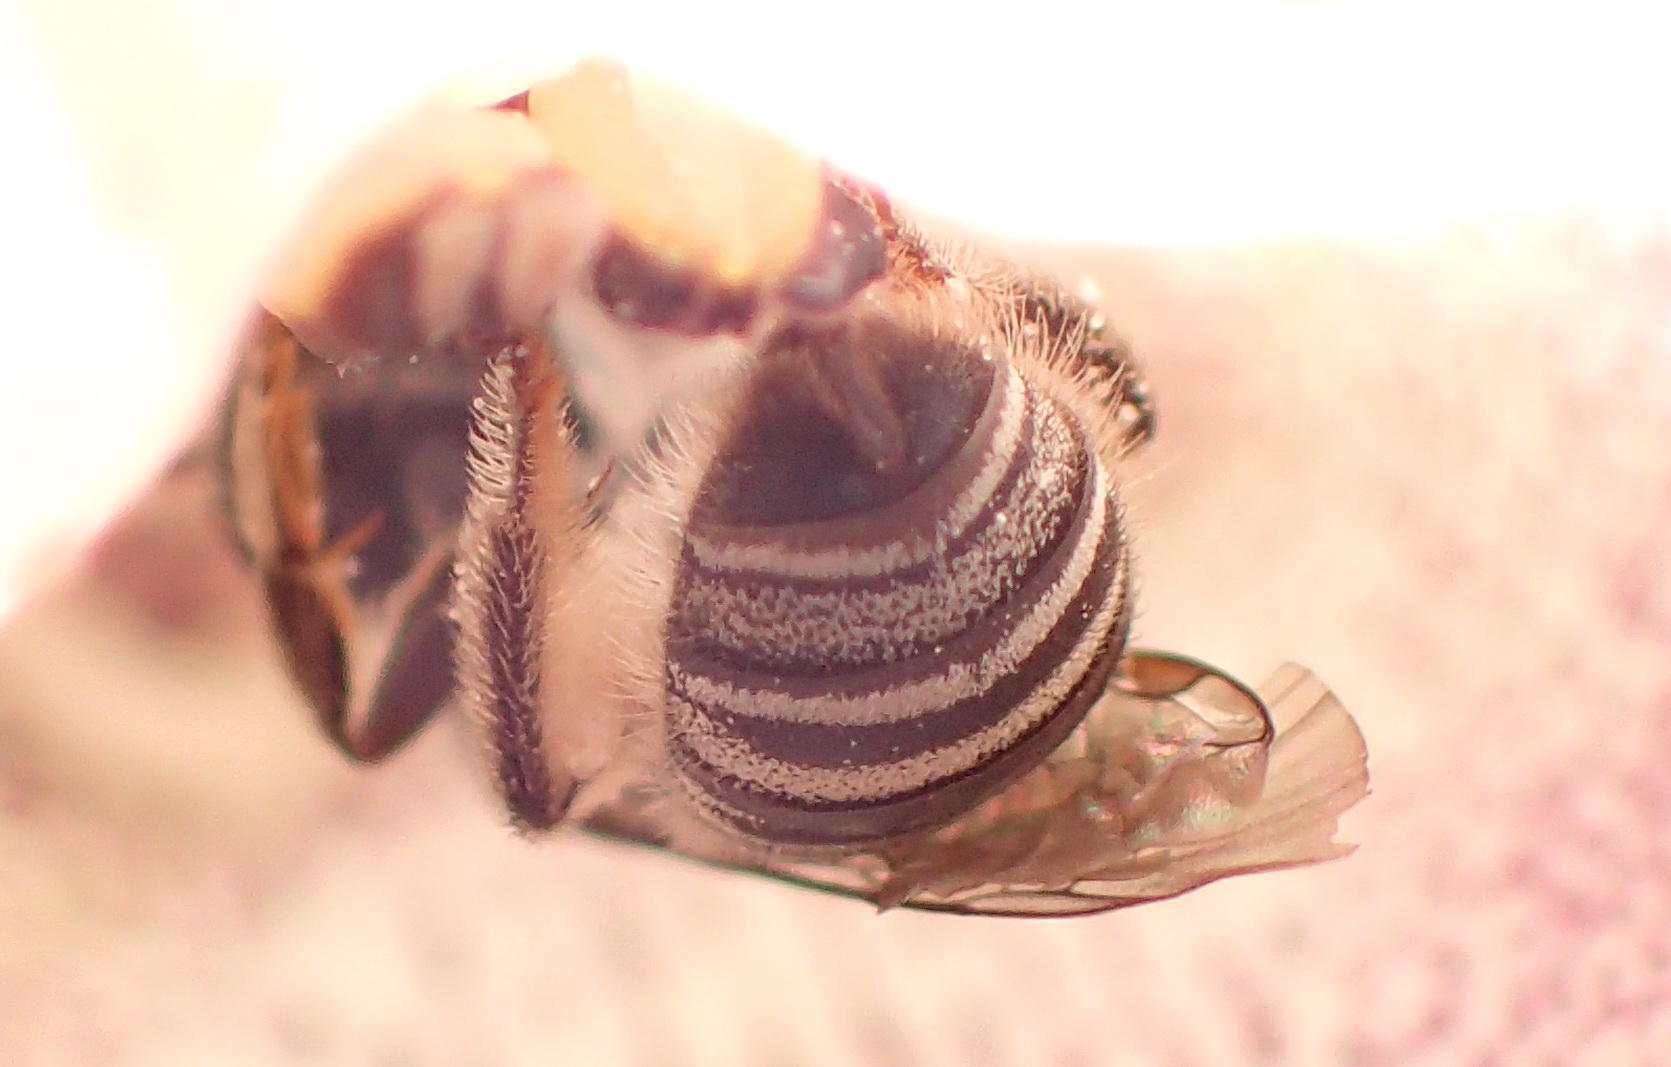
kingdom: Animalia
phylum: Arthropoda
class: Insecta
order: Hymenoptera
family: Halictidae
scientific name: Halictidae
